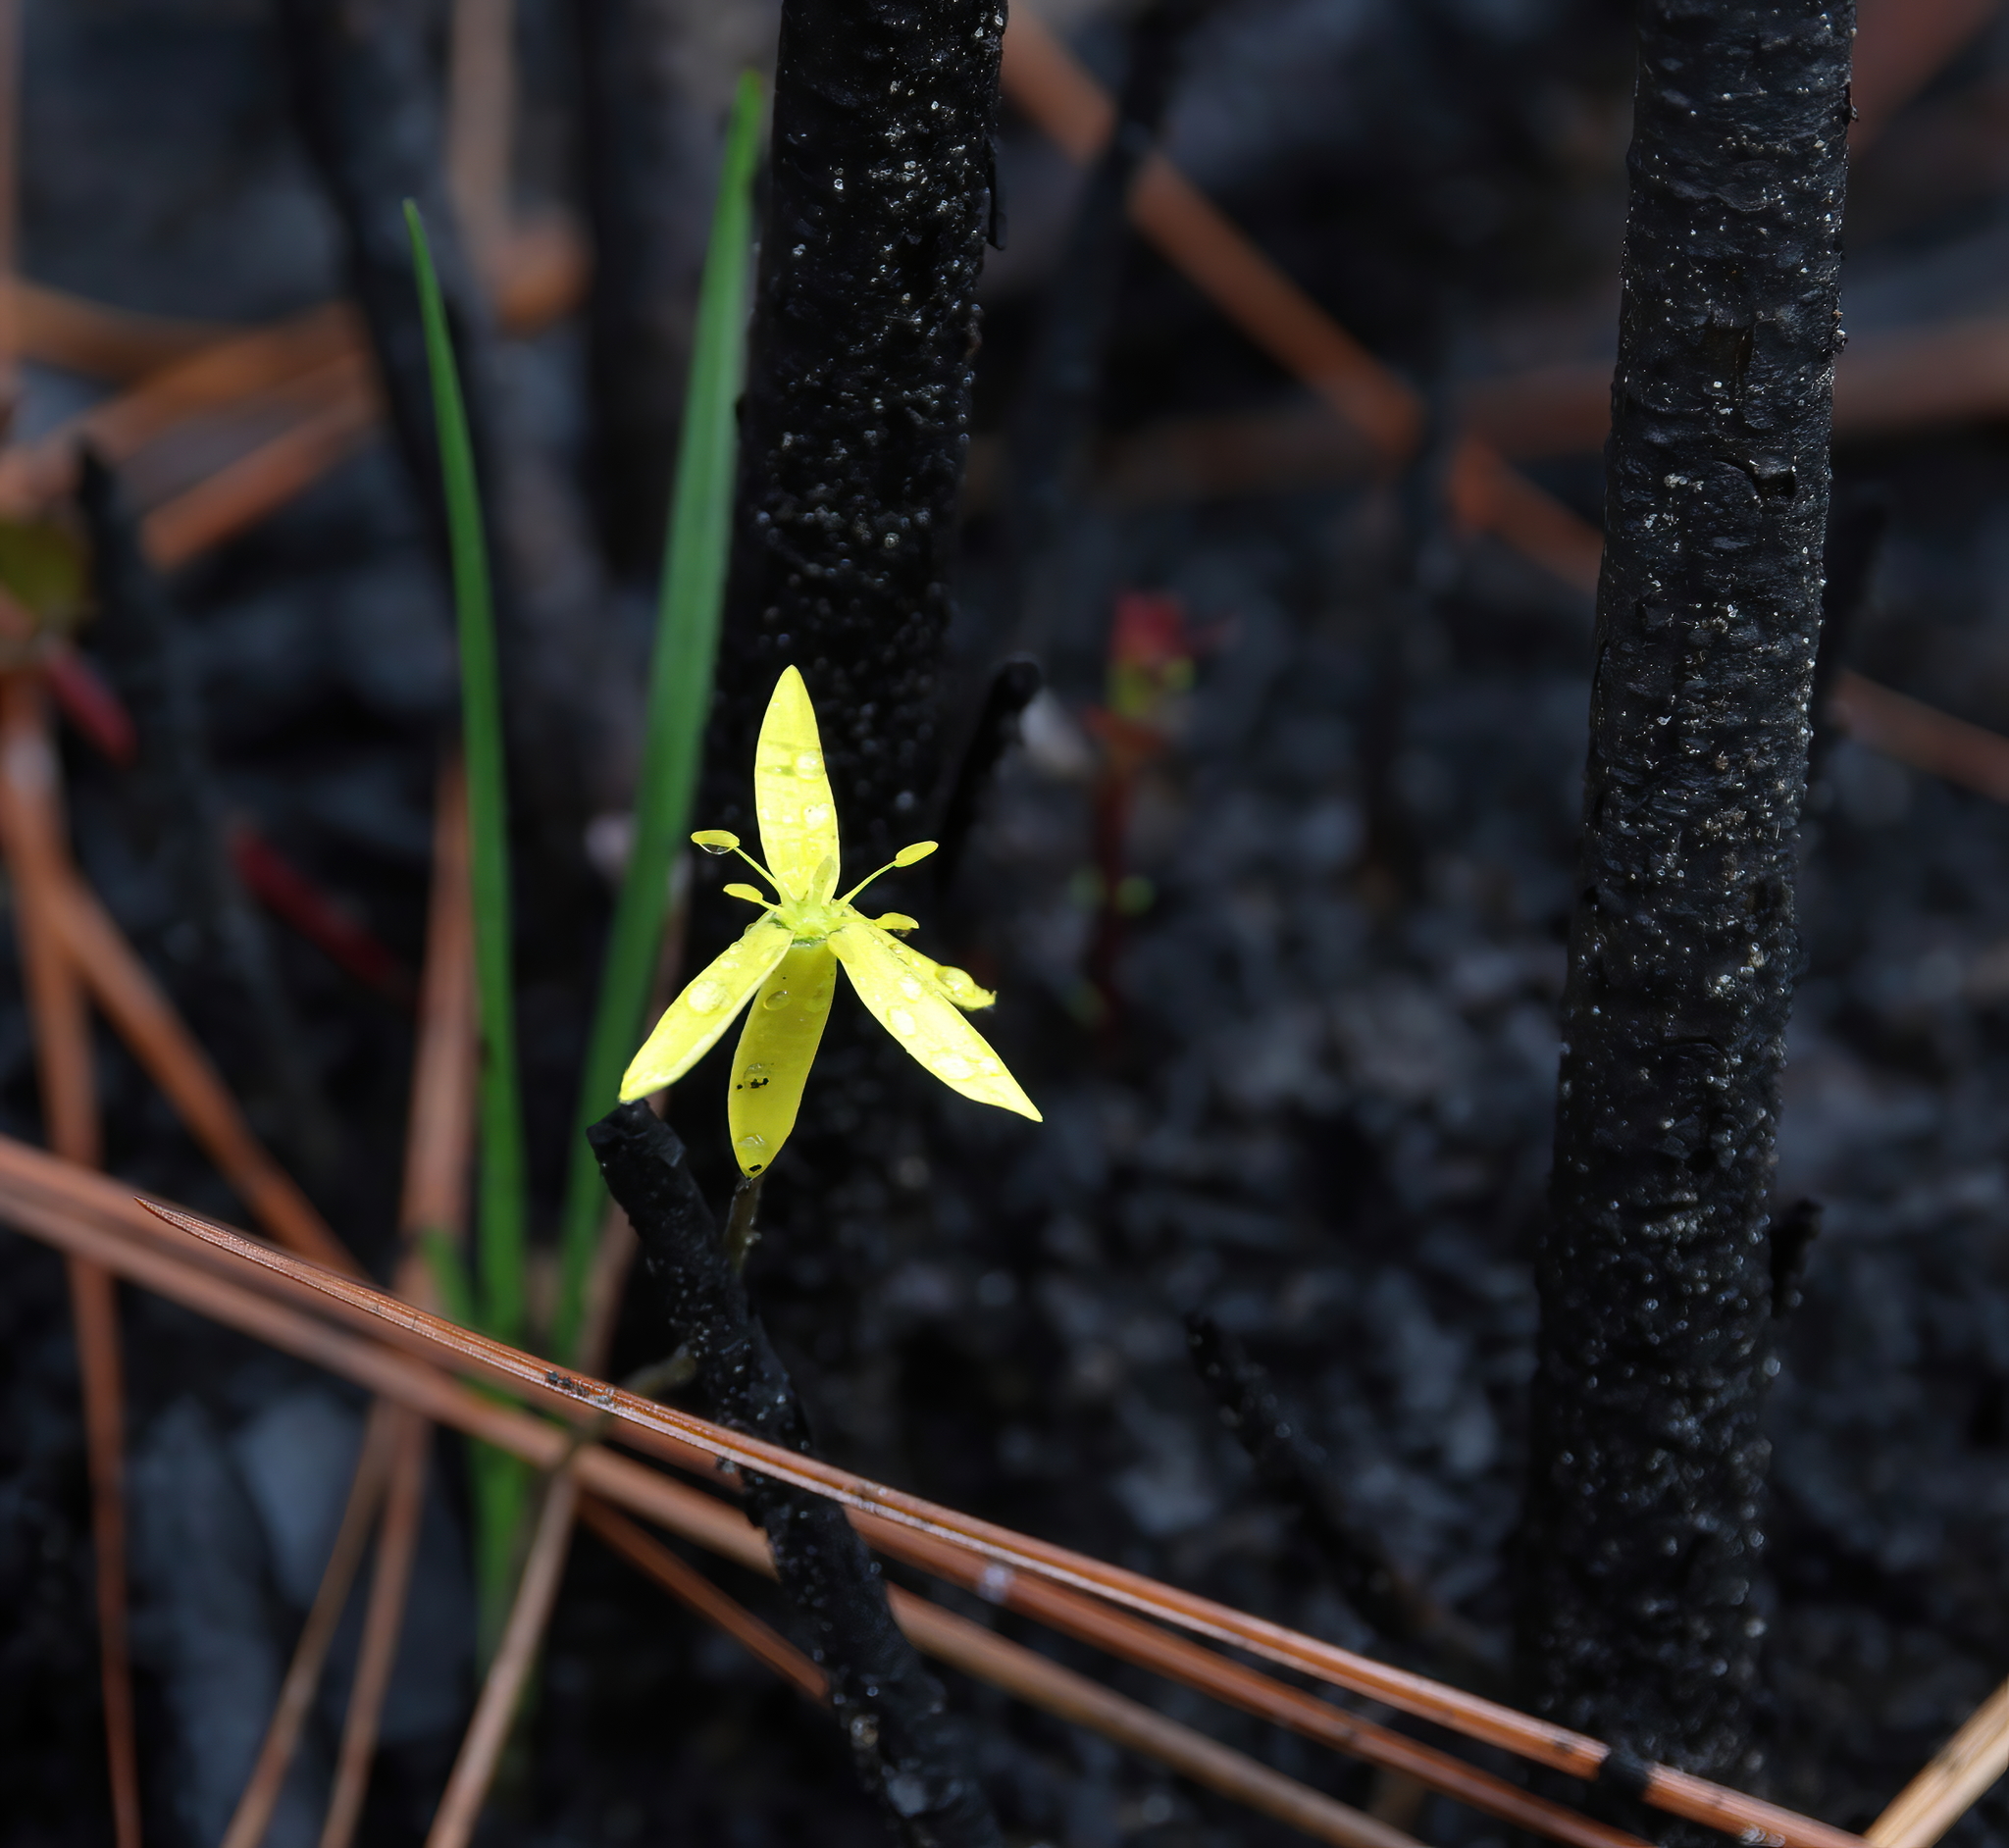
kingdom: Plantae
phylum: Tracheophyta
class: Liliopsida
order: Asparagales
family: Hypoxidaceae
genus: Hypoxis
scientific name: Hypoxis juncea
